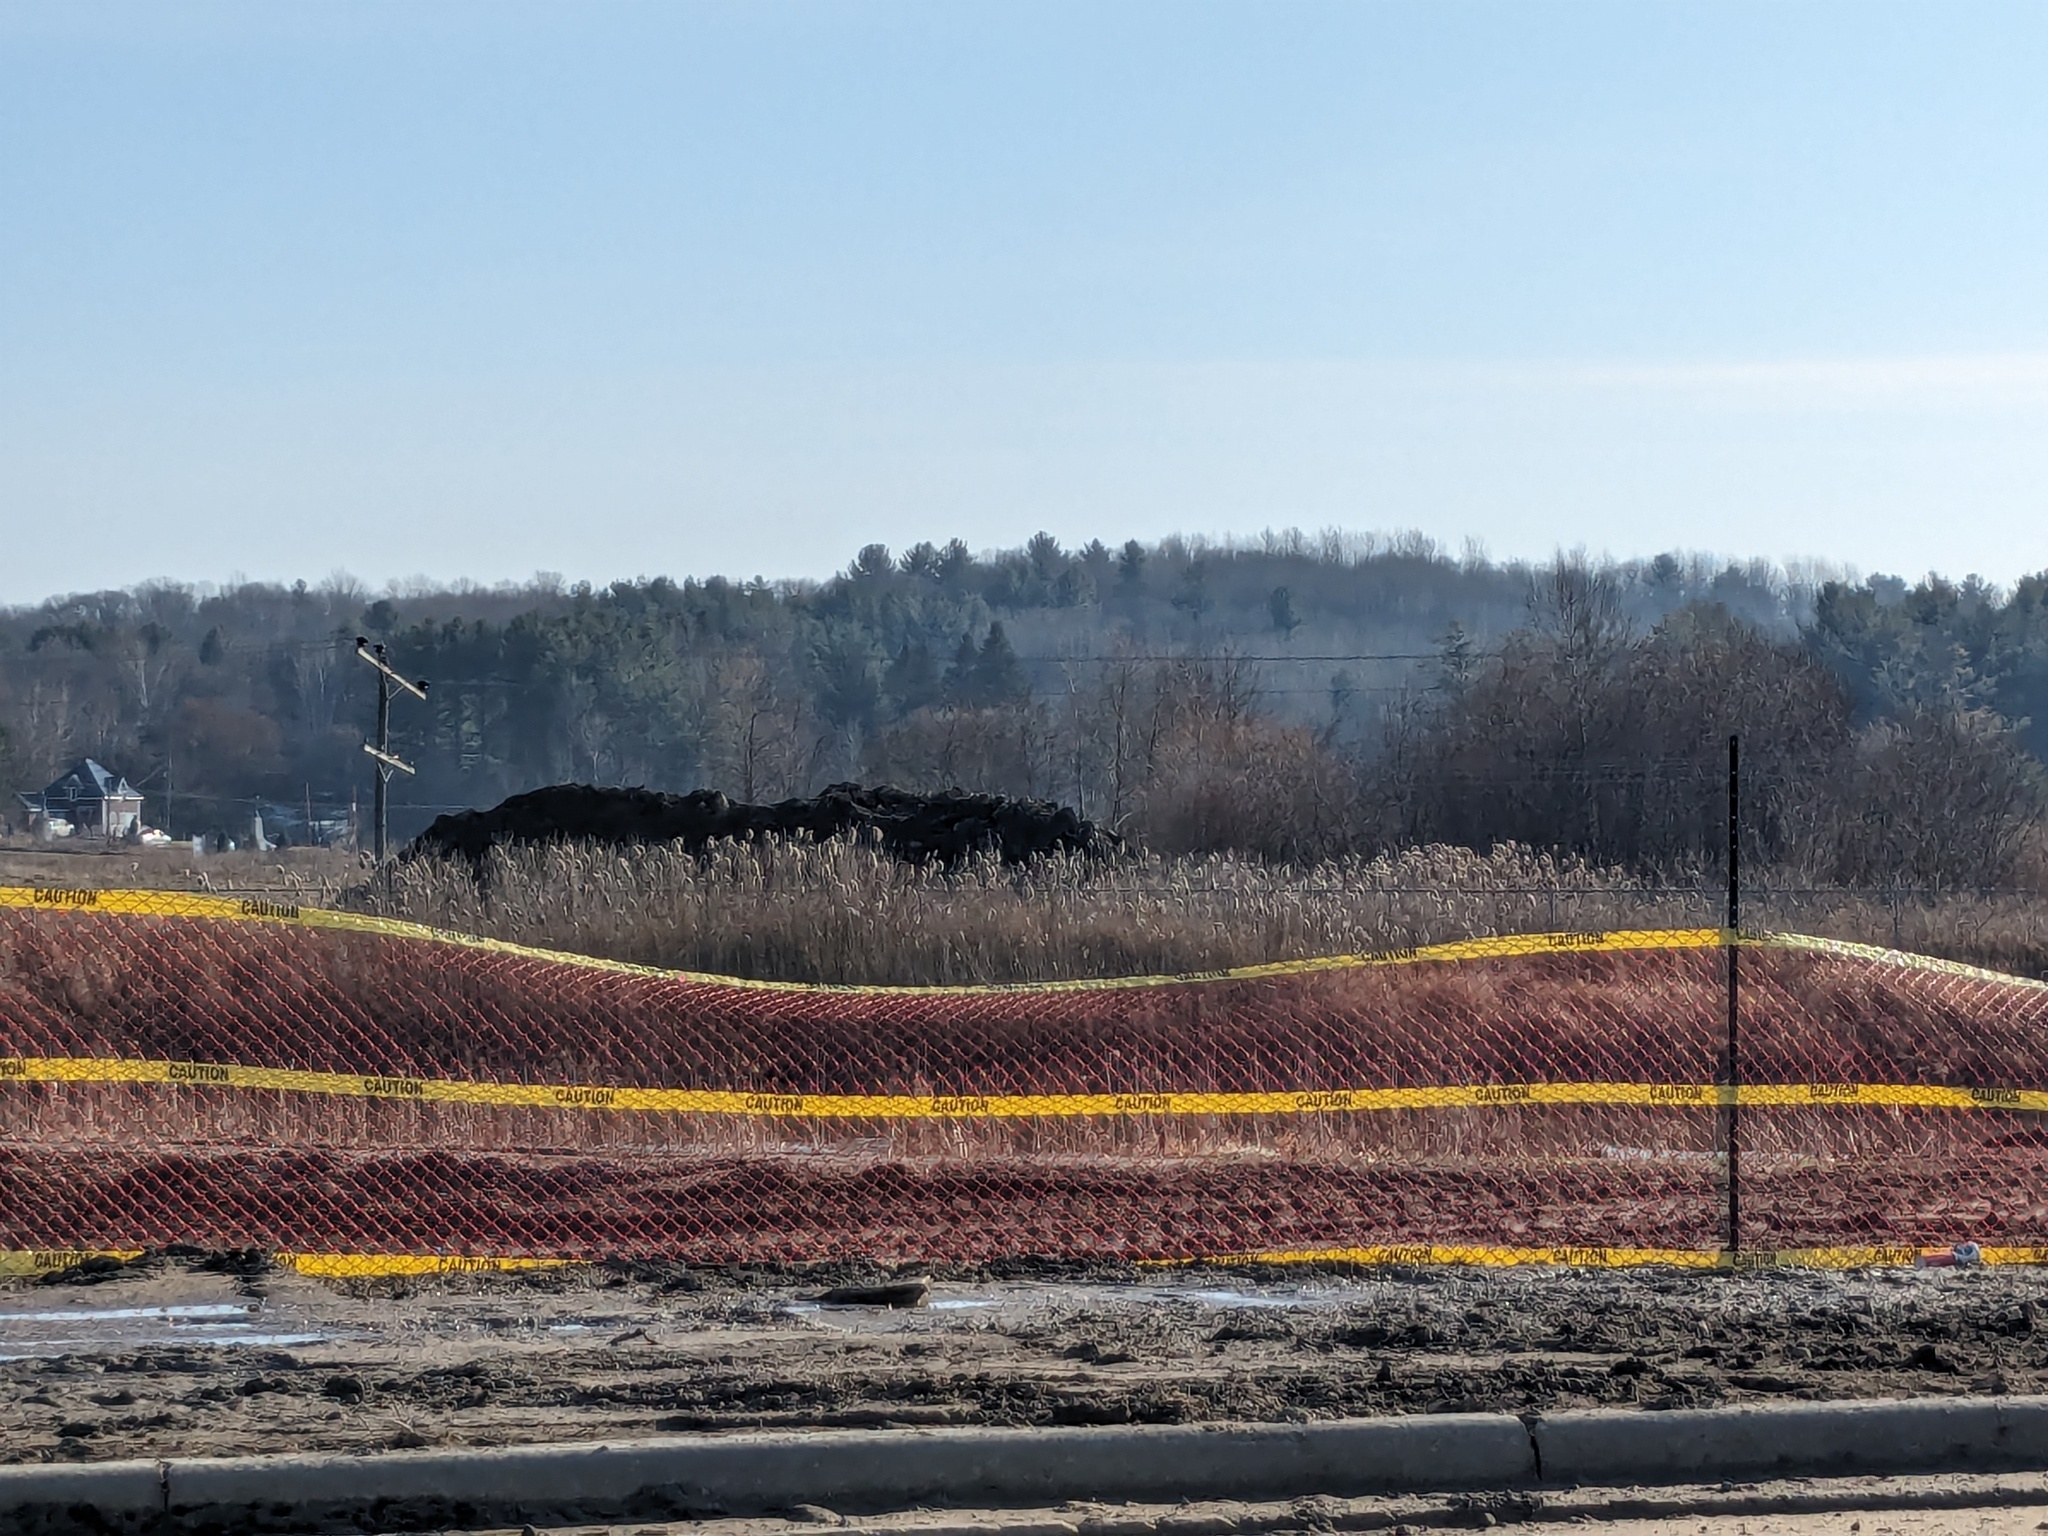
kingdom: Plantae
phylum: Tracheophyta
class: Liliopsida
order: Poales
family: Poaceae
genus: Phragmites
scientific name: Phragmites australis
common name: Common reed
